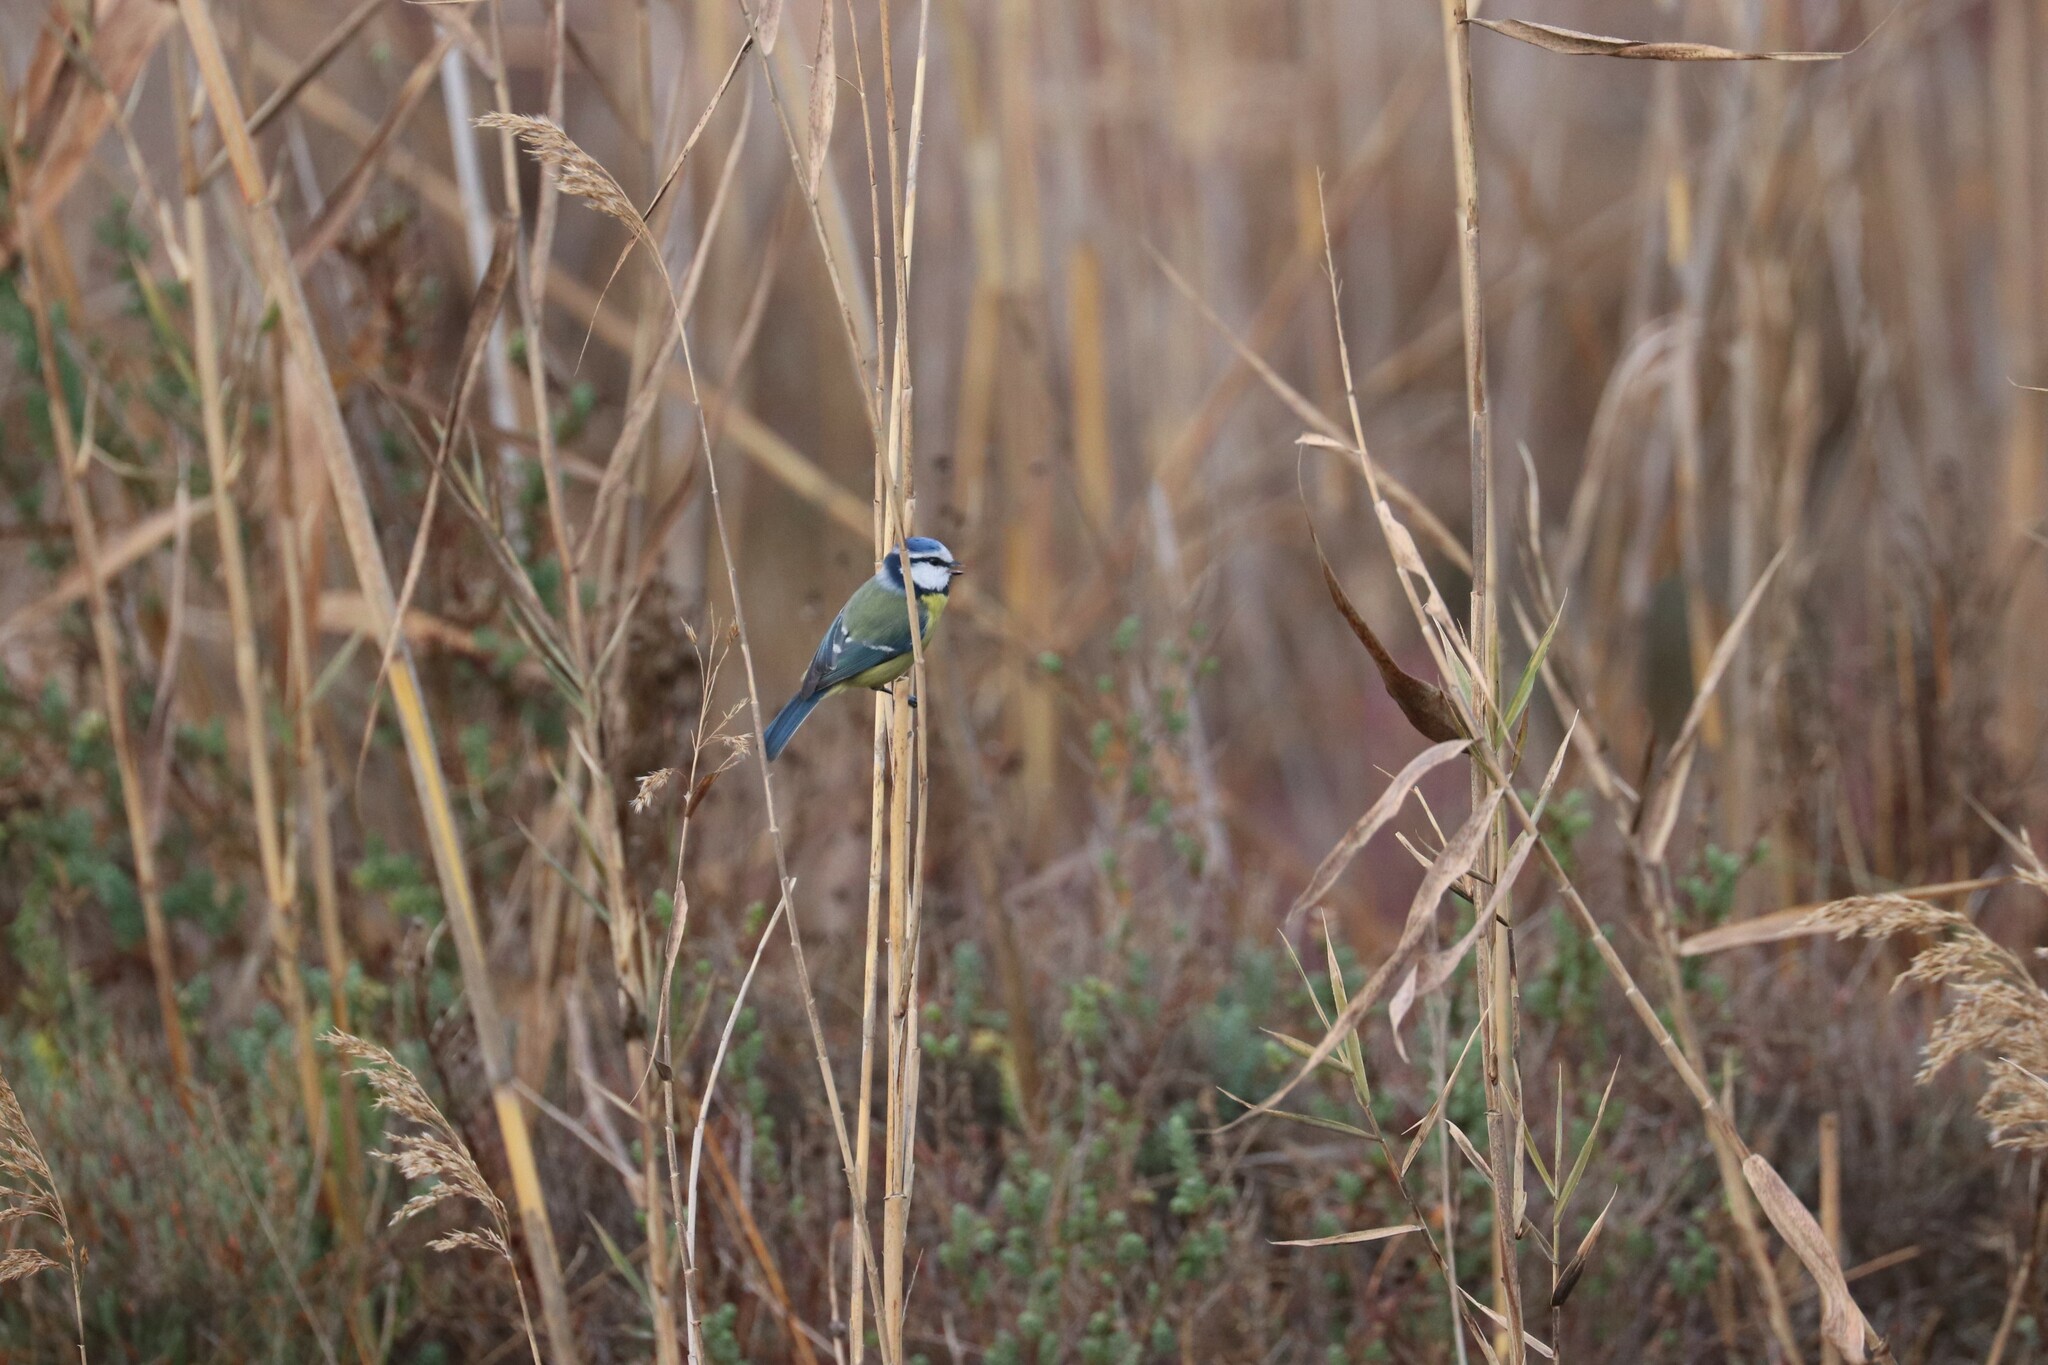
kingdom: Animalia
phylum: Chordata
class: Aves
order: Passeriformes
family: Paridae
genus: Cyanistes
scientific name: Cyanistes caeruleus
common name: Eurasian blue tit
